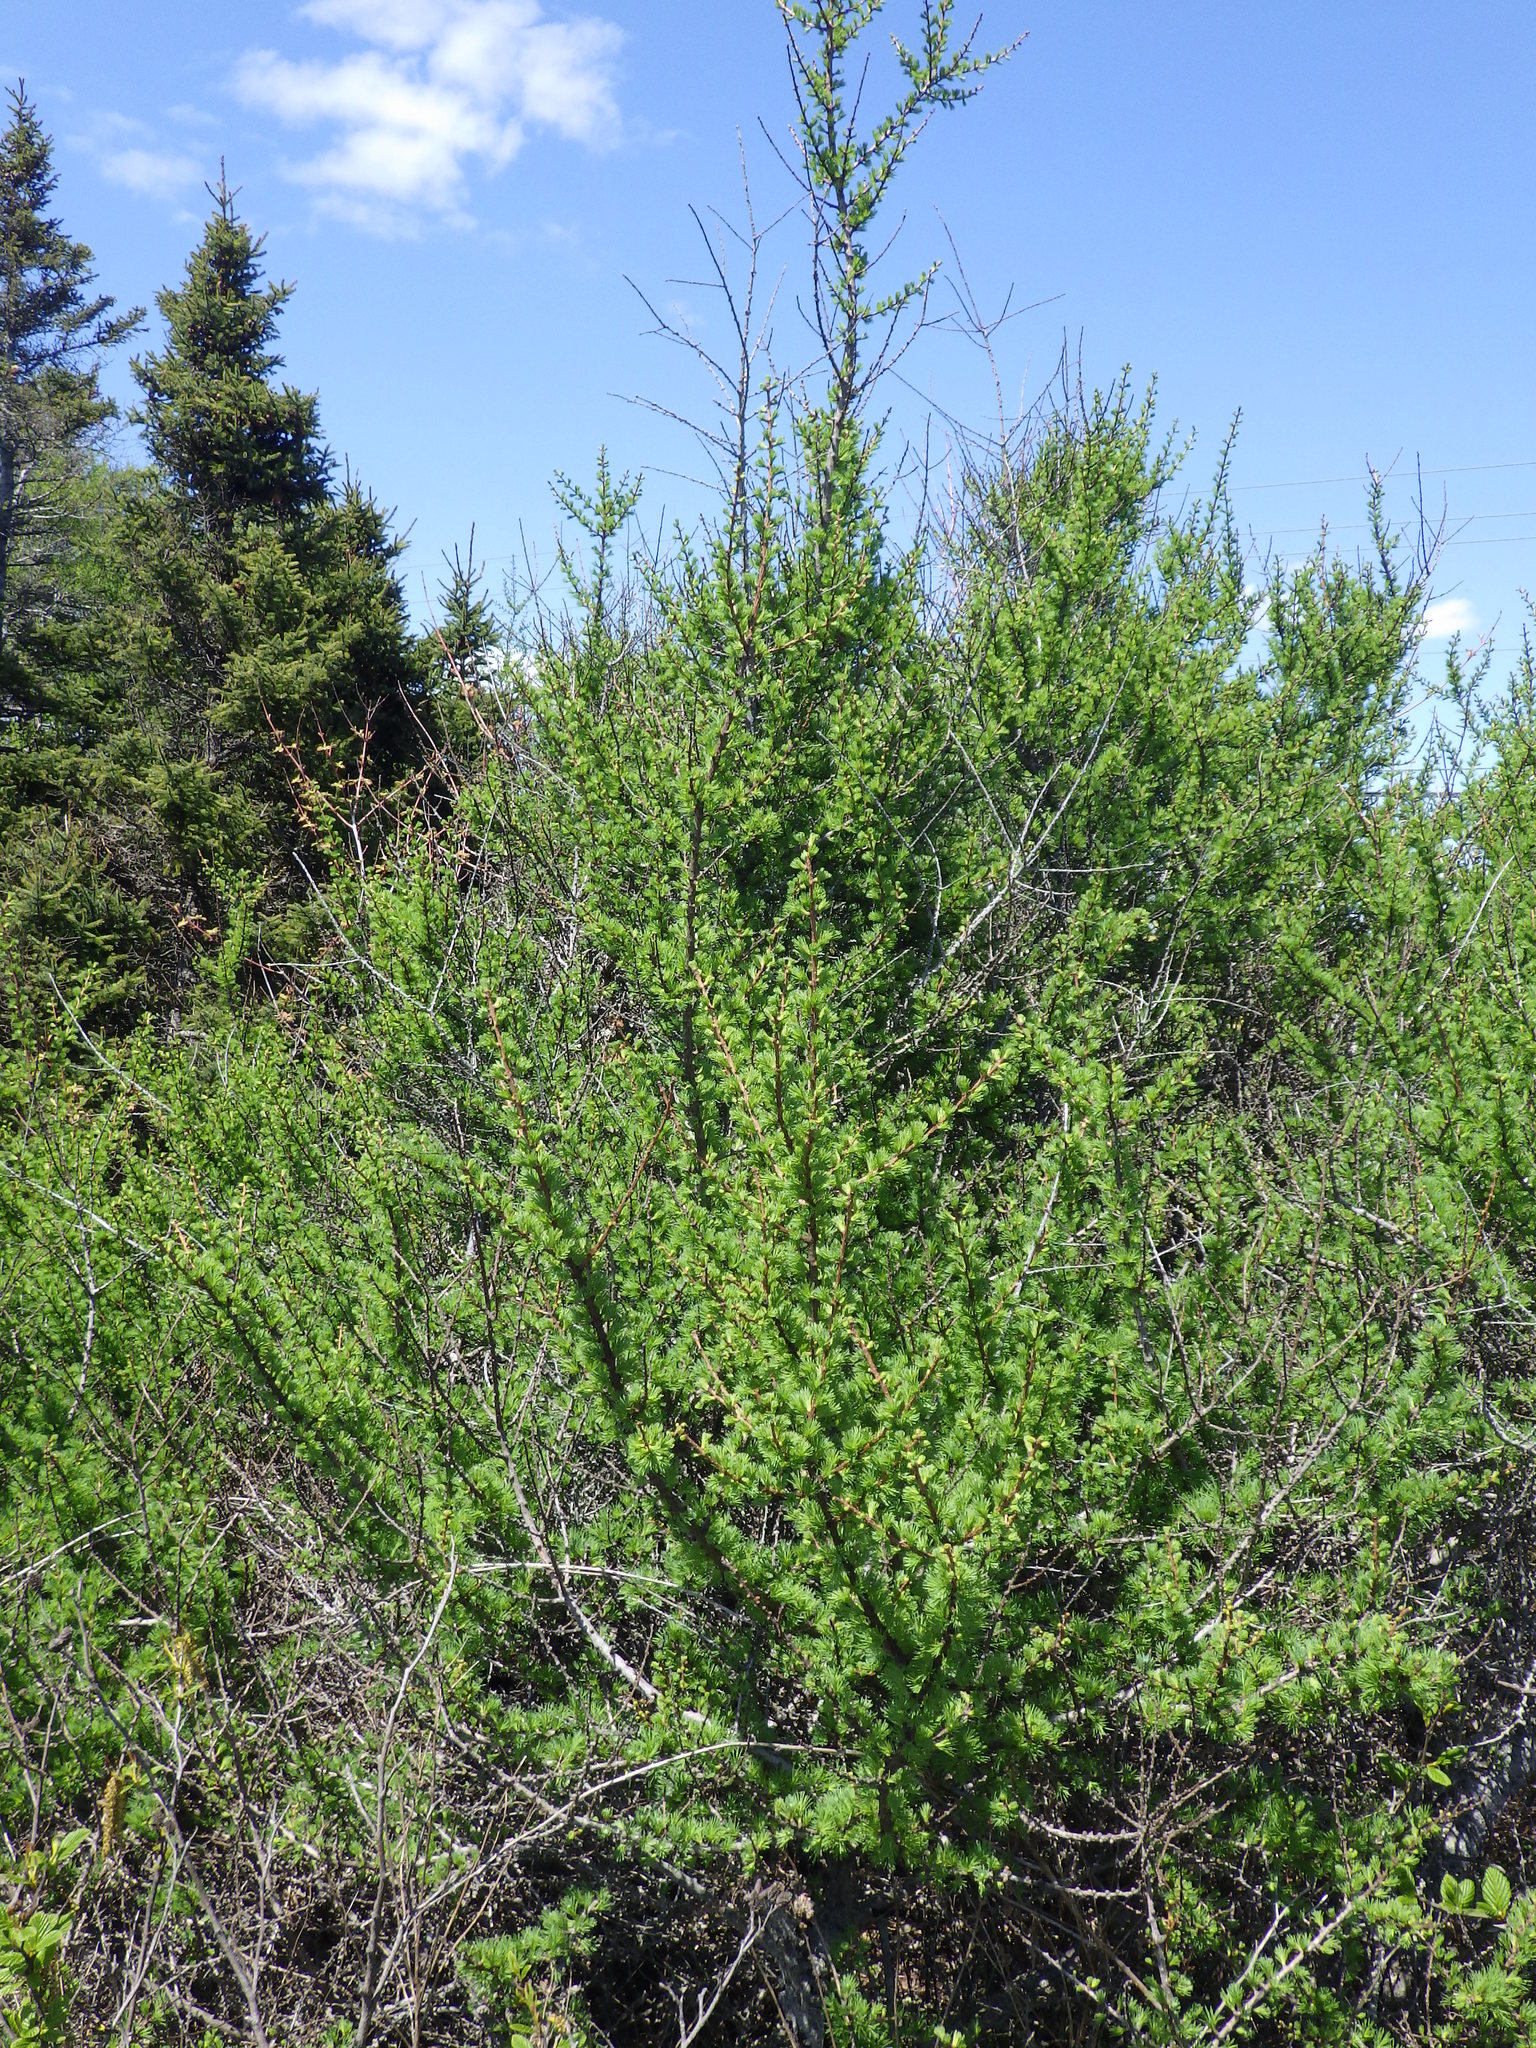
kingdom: Plantae
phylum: Tracheophyta
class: Pinopsida
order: Pinales
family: Pinaceae
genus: Larix
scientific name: Larix laricina
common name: American larch
